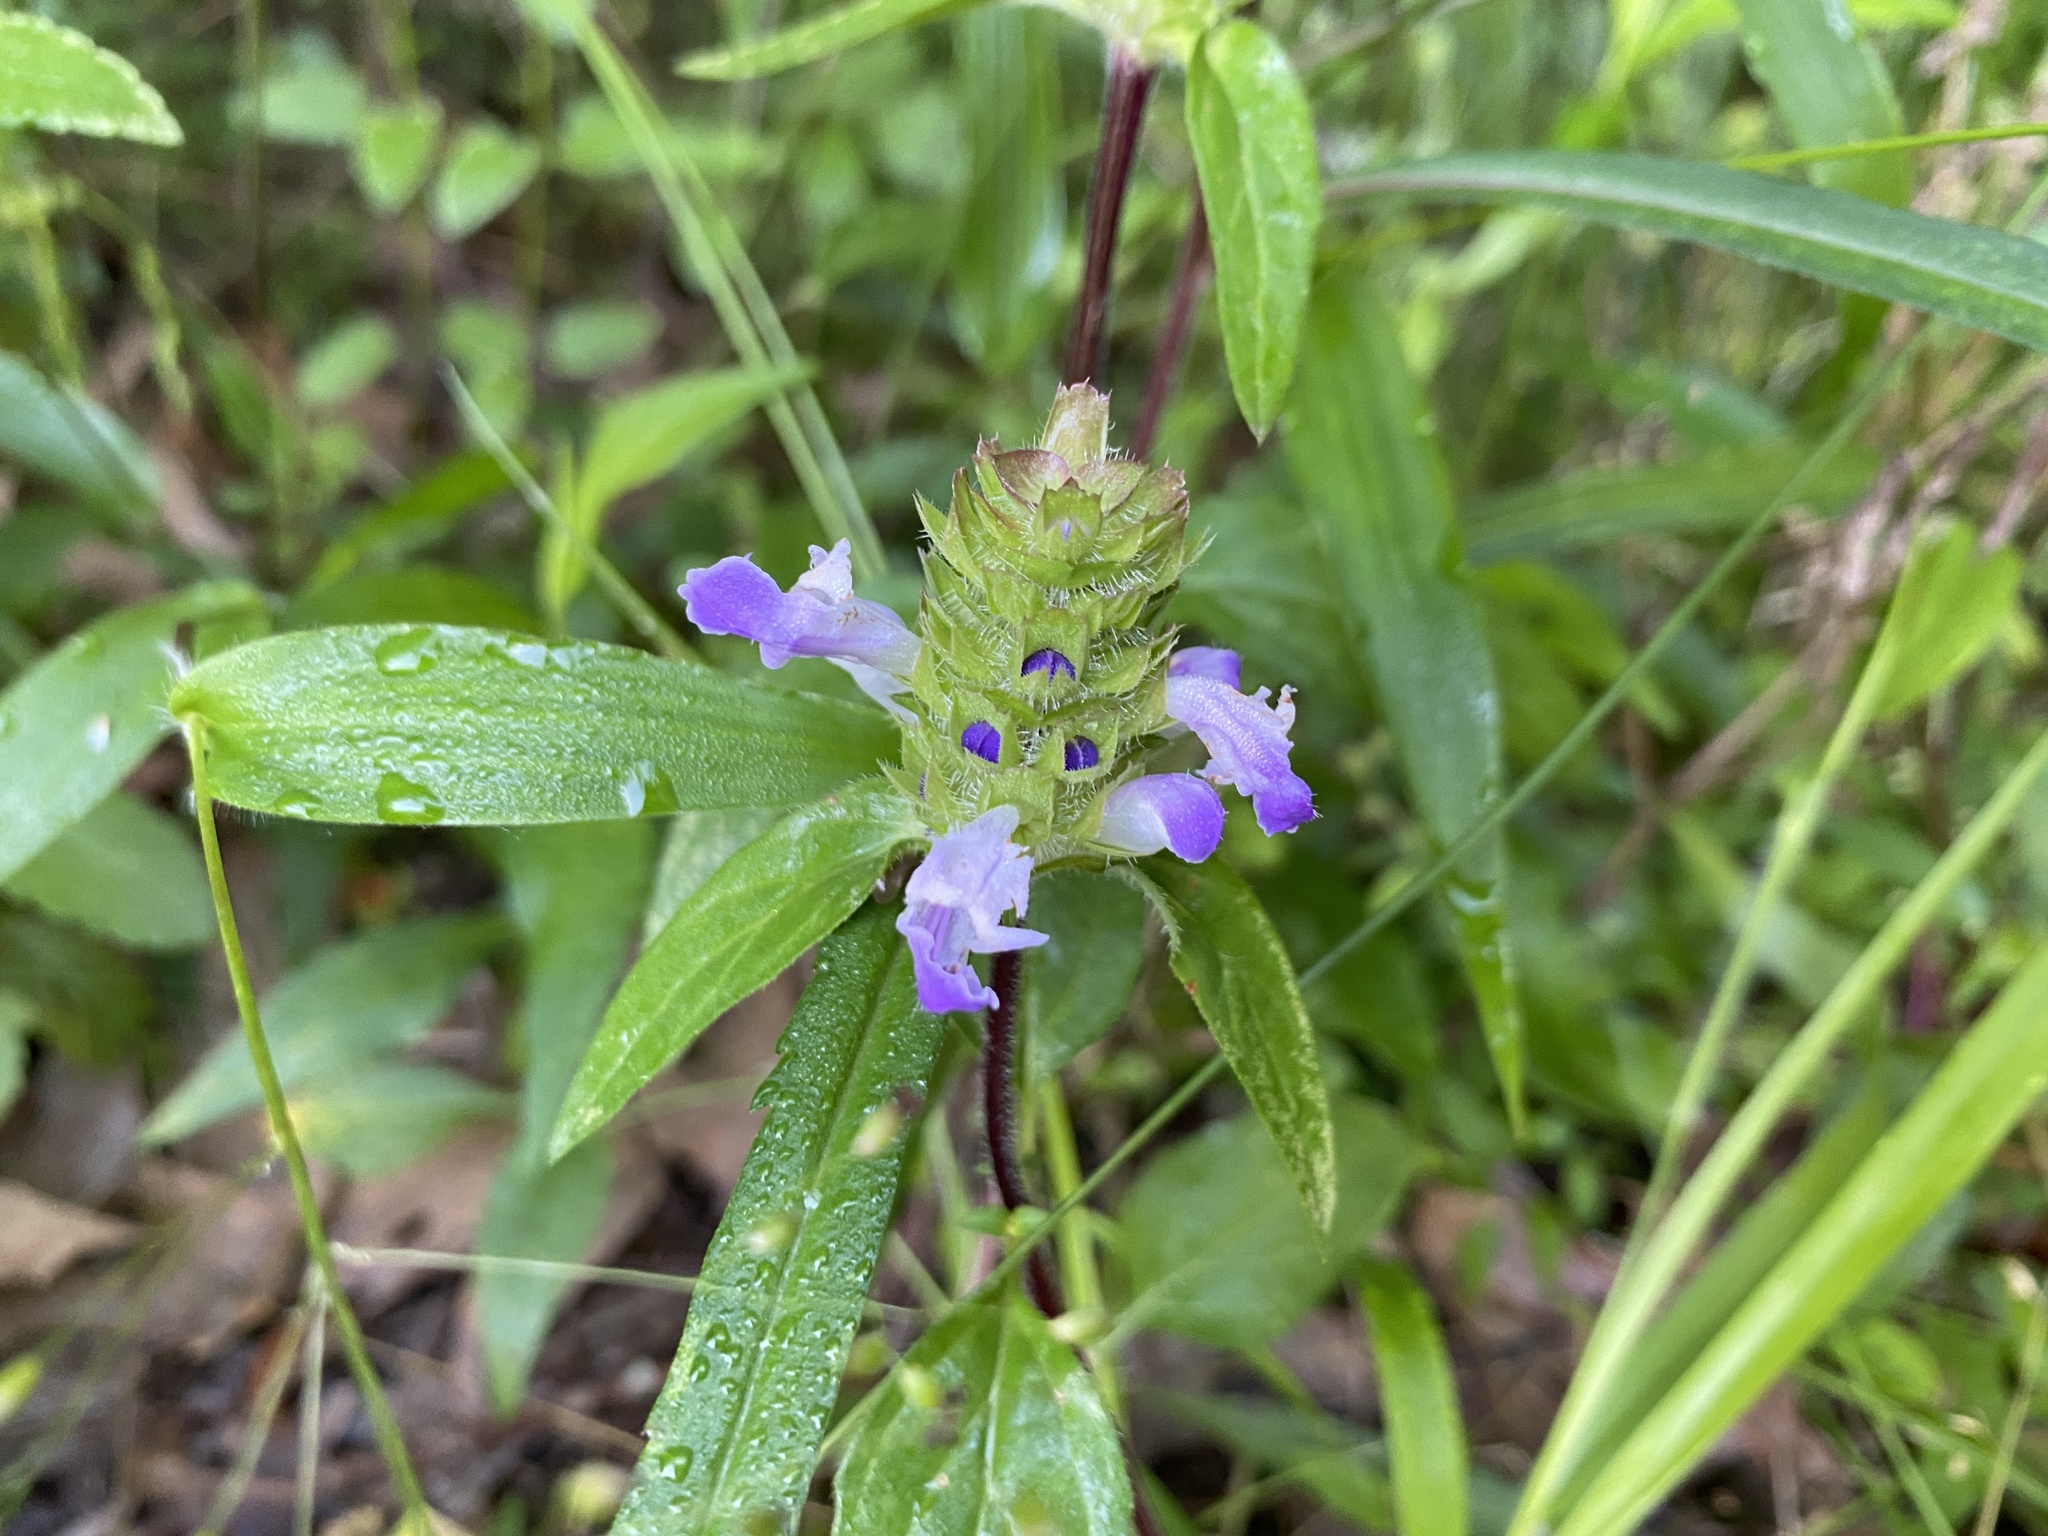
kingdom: Plantae
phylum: Tracheophyta
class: Magnoliopsida
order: Lamiales
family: Lamiaceae
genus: Prunella
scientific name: Prunella vulgaris
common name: Heal-all
